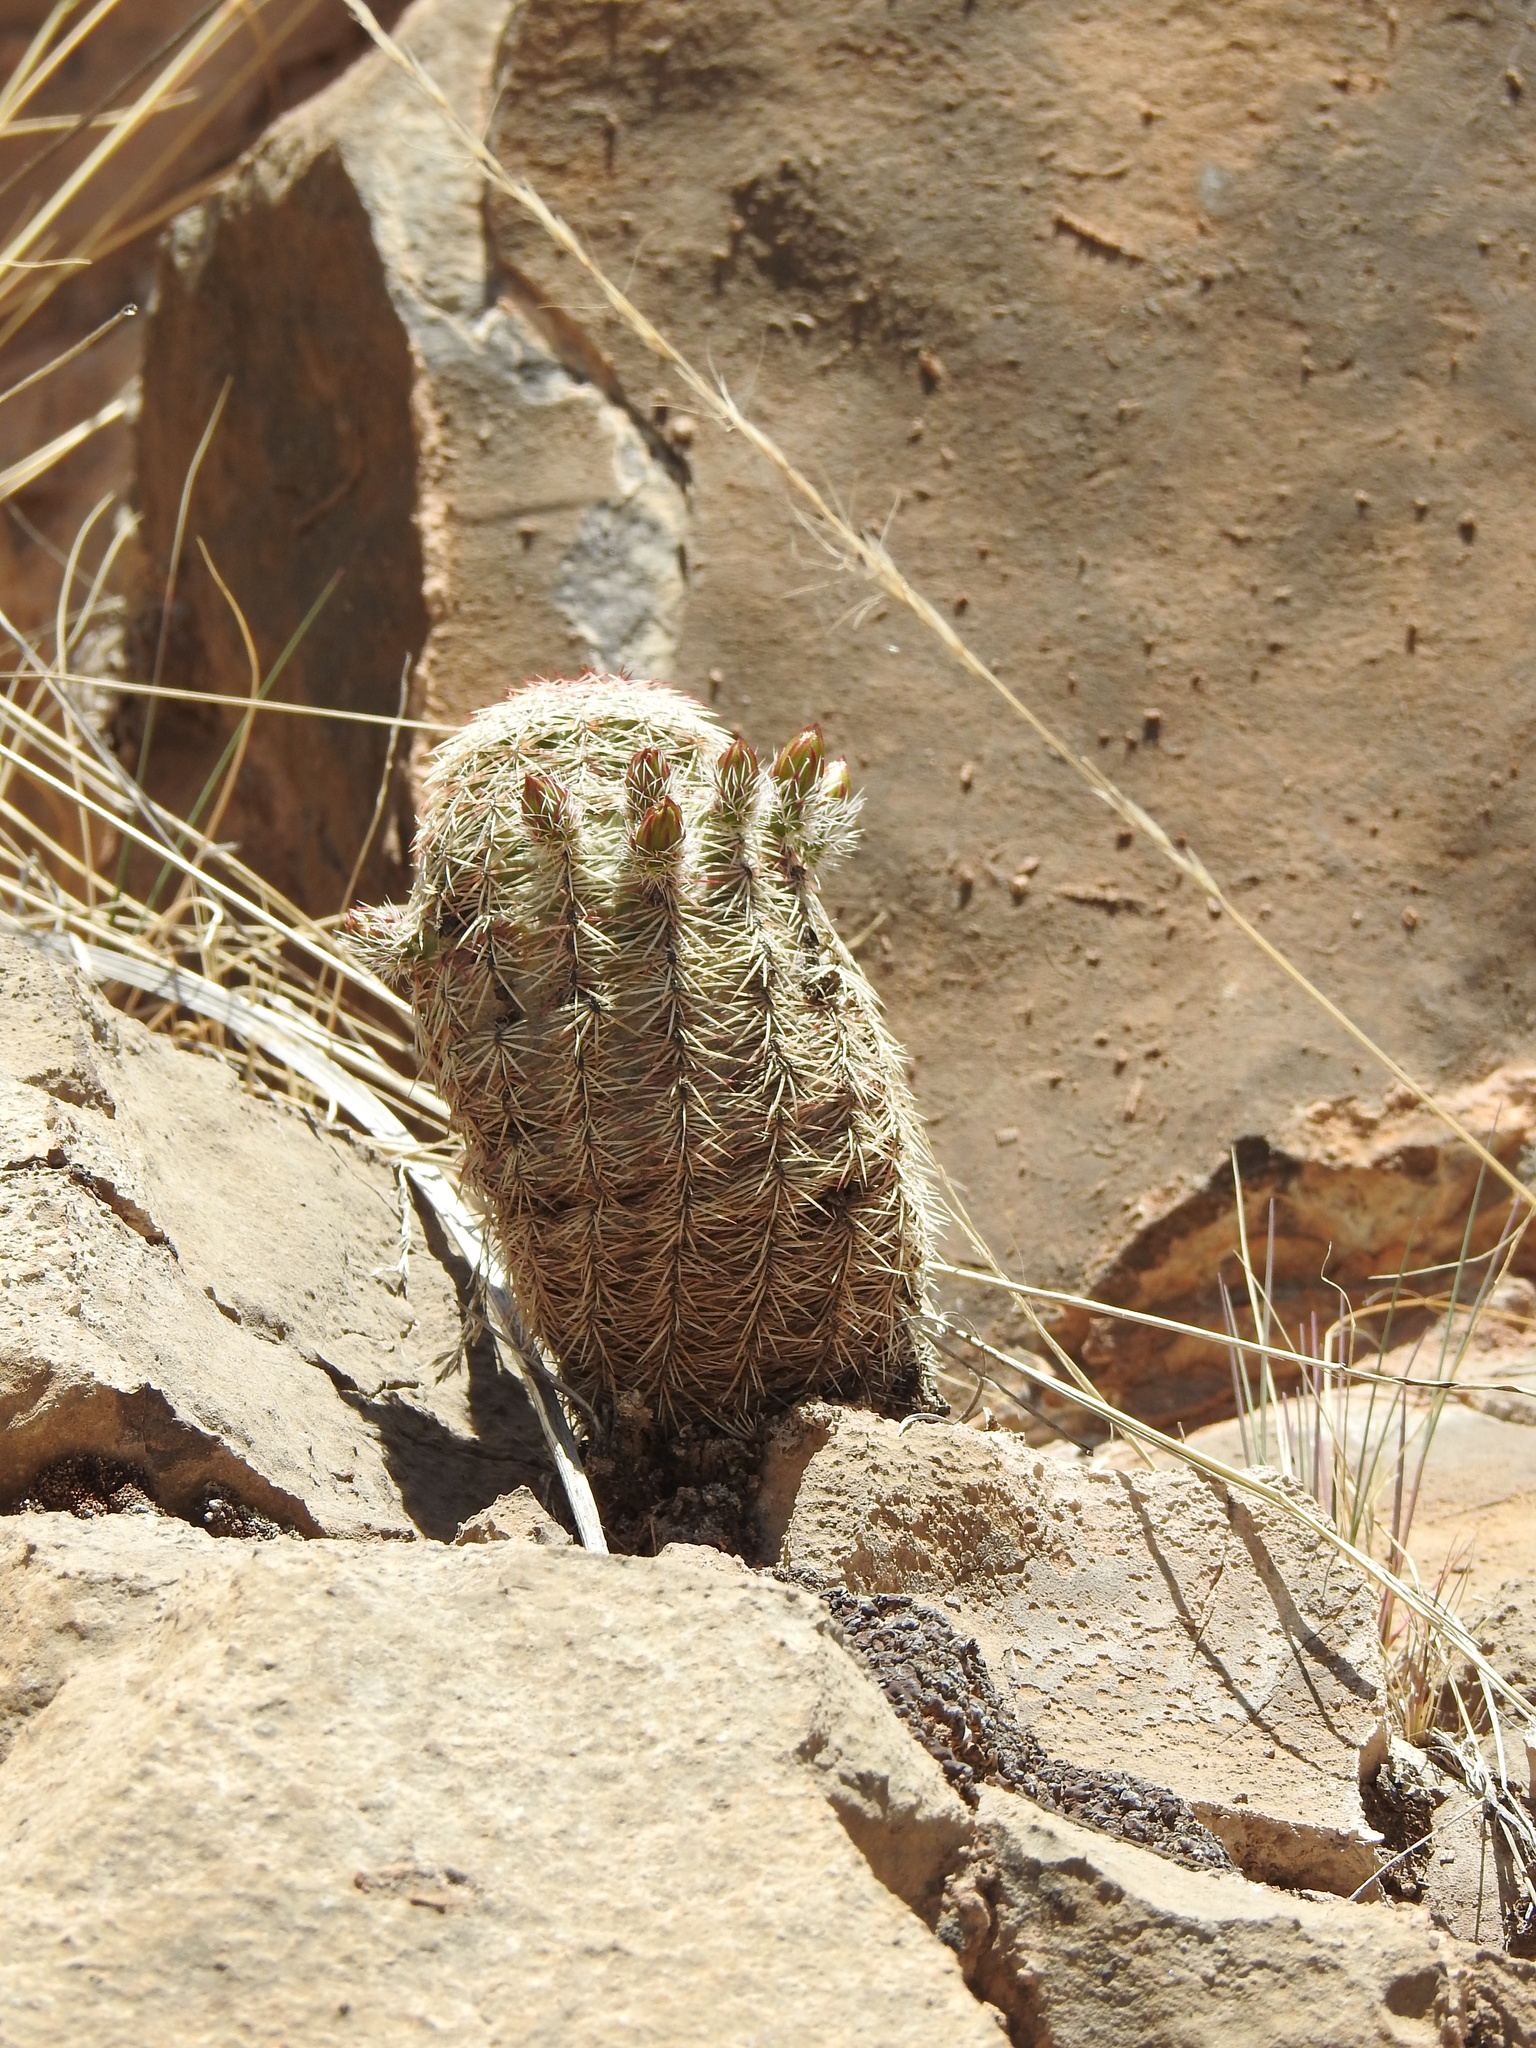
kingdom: Plantae
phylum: Tracheophyta
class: Magnoliopsida
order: Caryophyllales
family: Cactaceae
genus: Echinocereus
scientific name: Echinocereus viridiflorus
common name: Nylon hedgehog cactus
